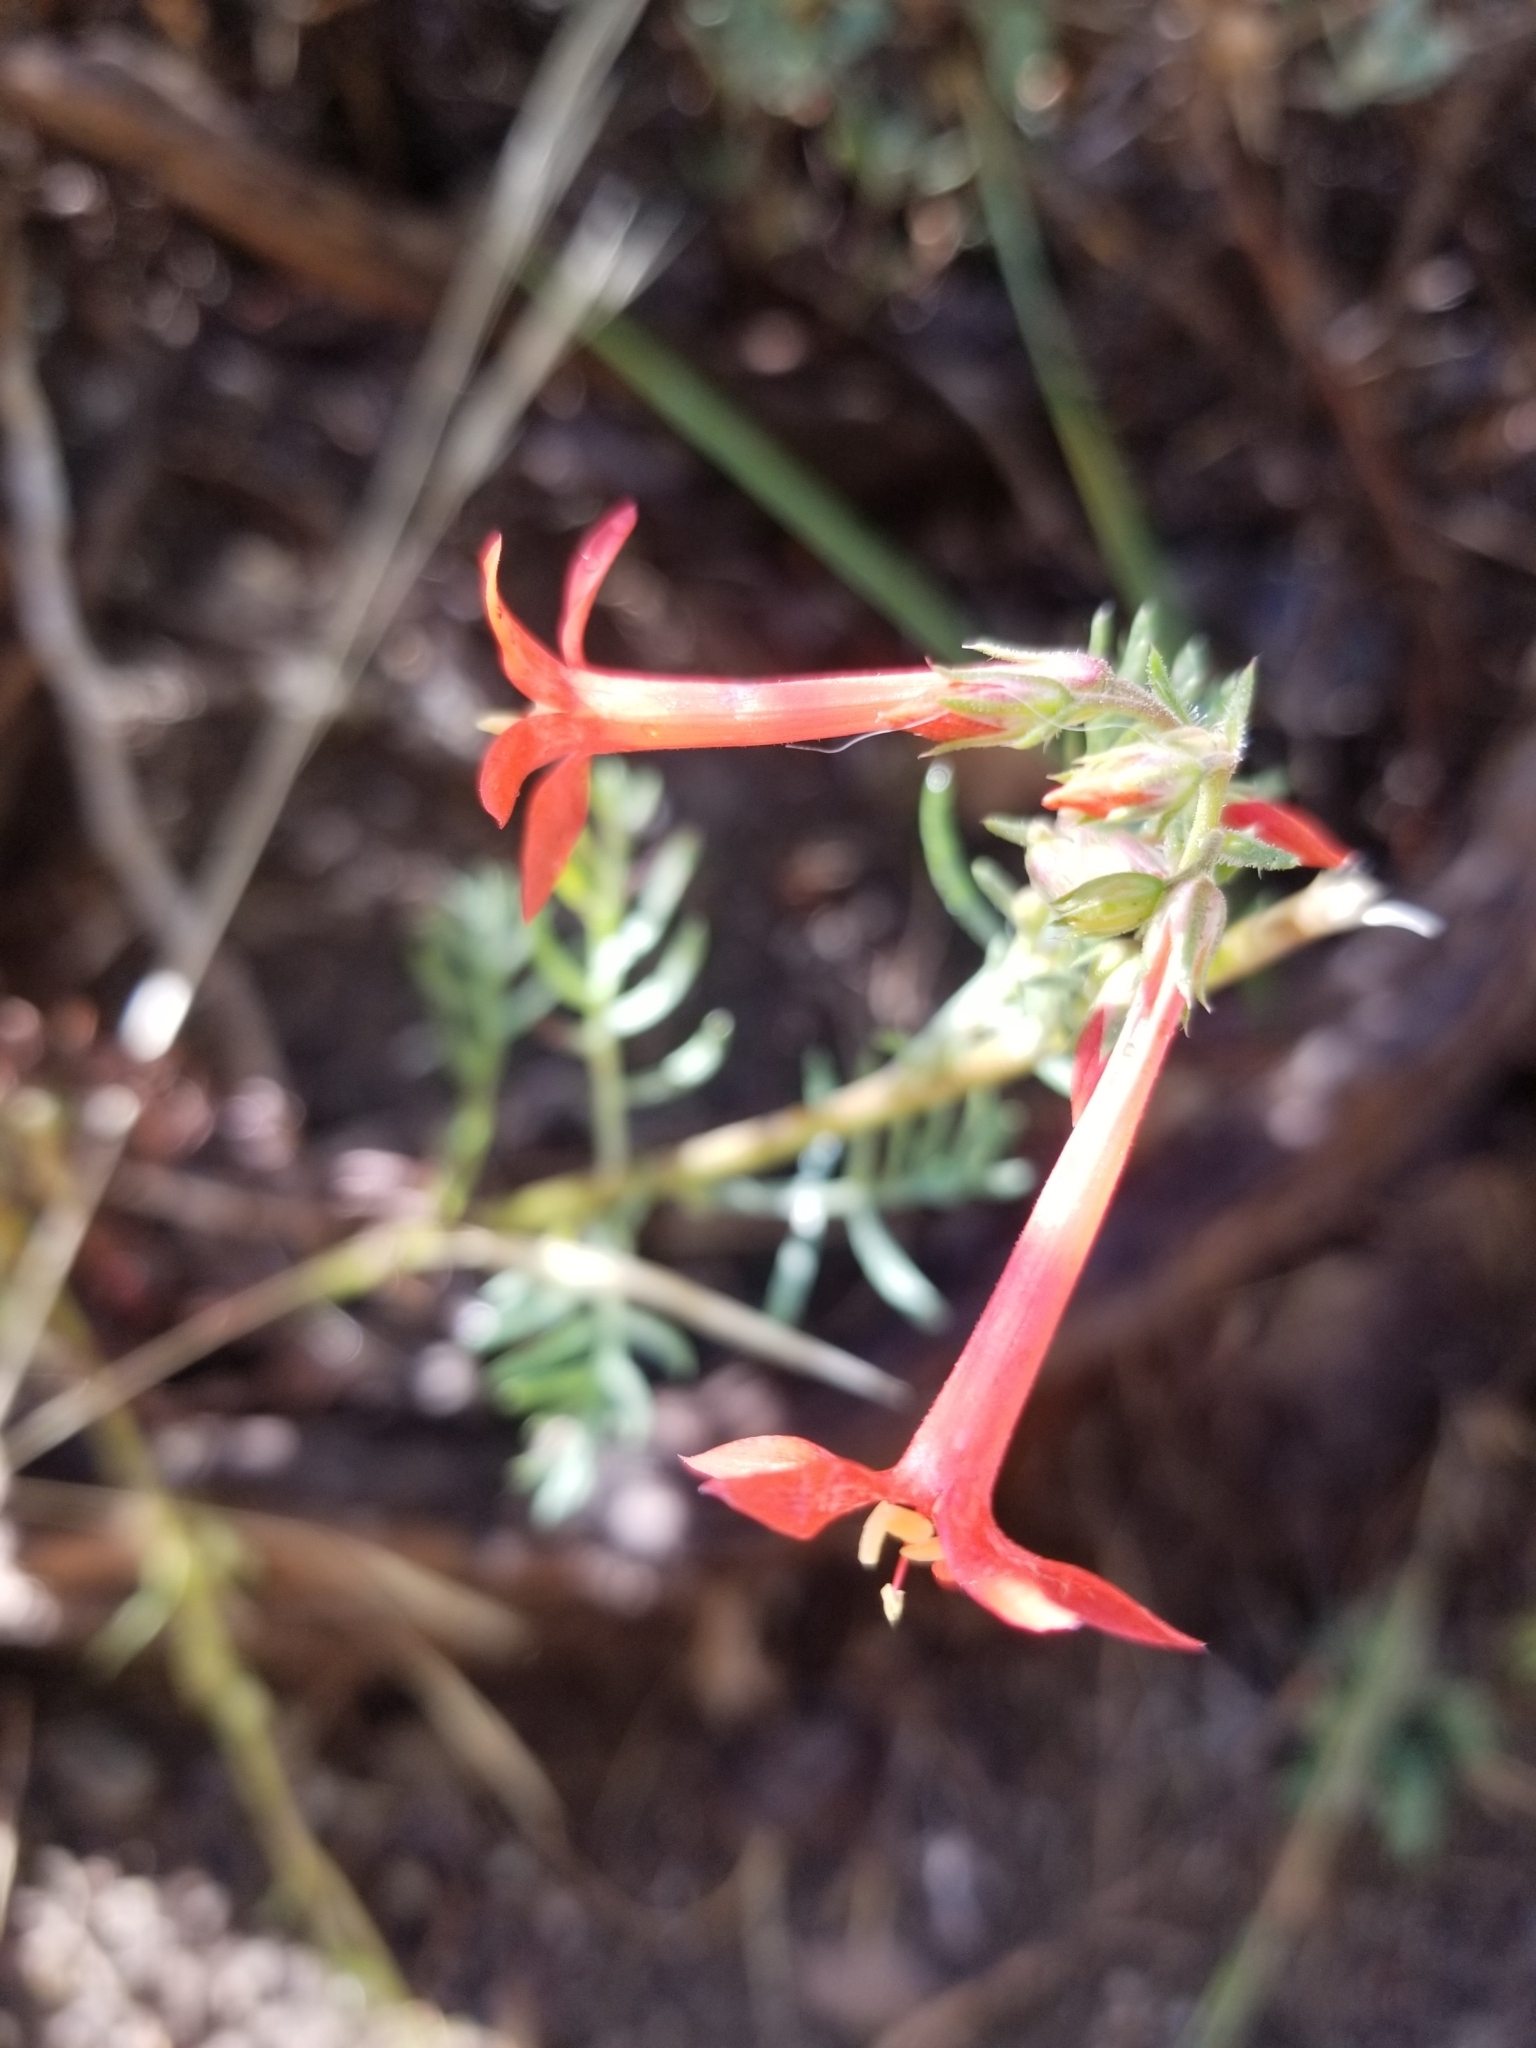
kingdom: Plantae
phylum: Tracheophyta
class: Magnoliopsida
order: Ericales
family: Polemoniaceae
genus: Ipomopsis
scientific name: Ipomopsis aggregata
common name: Scarlet gilia
